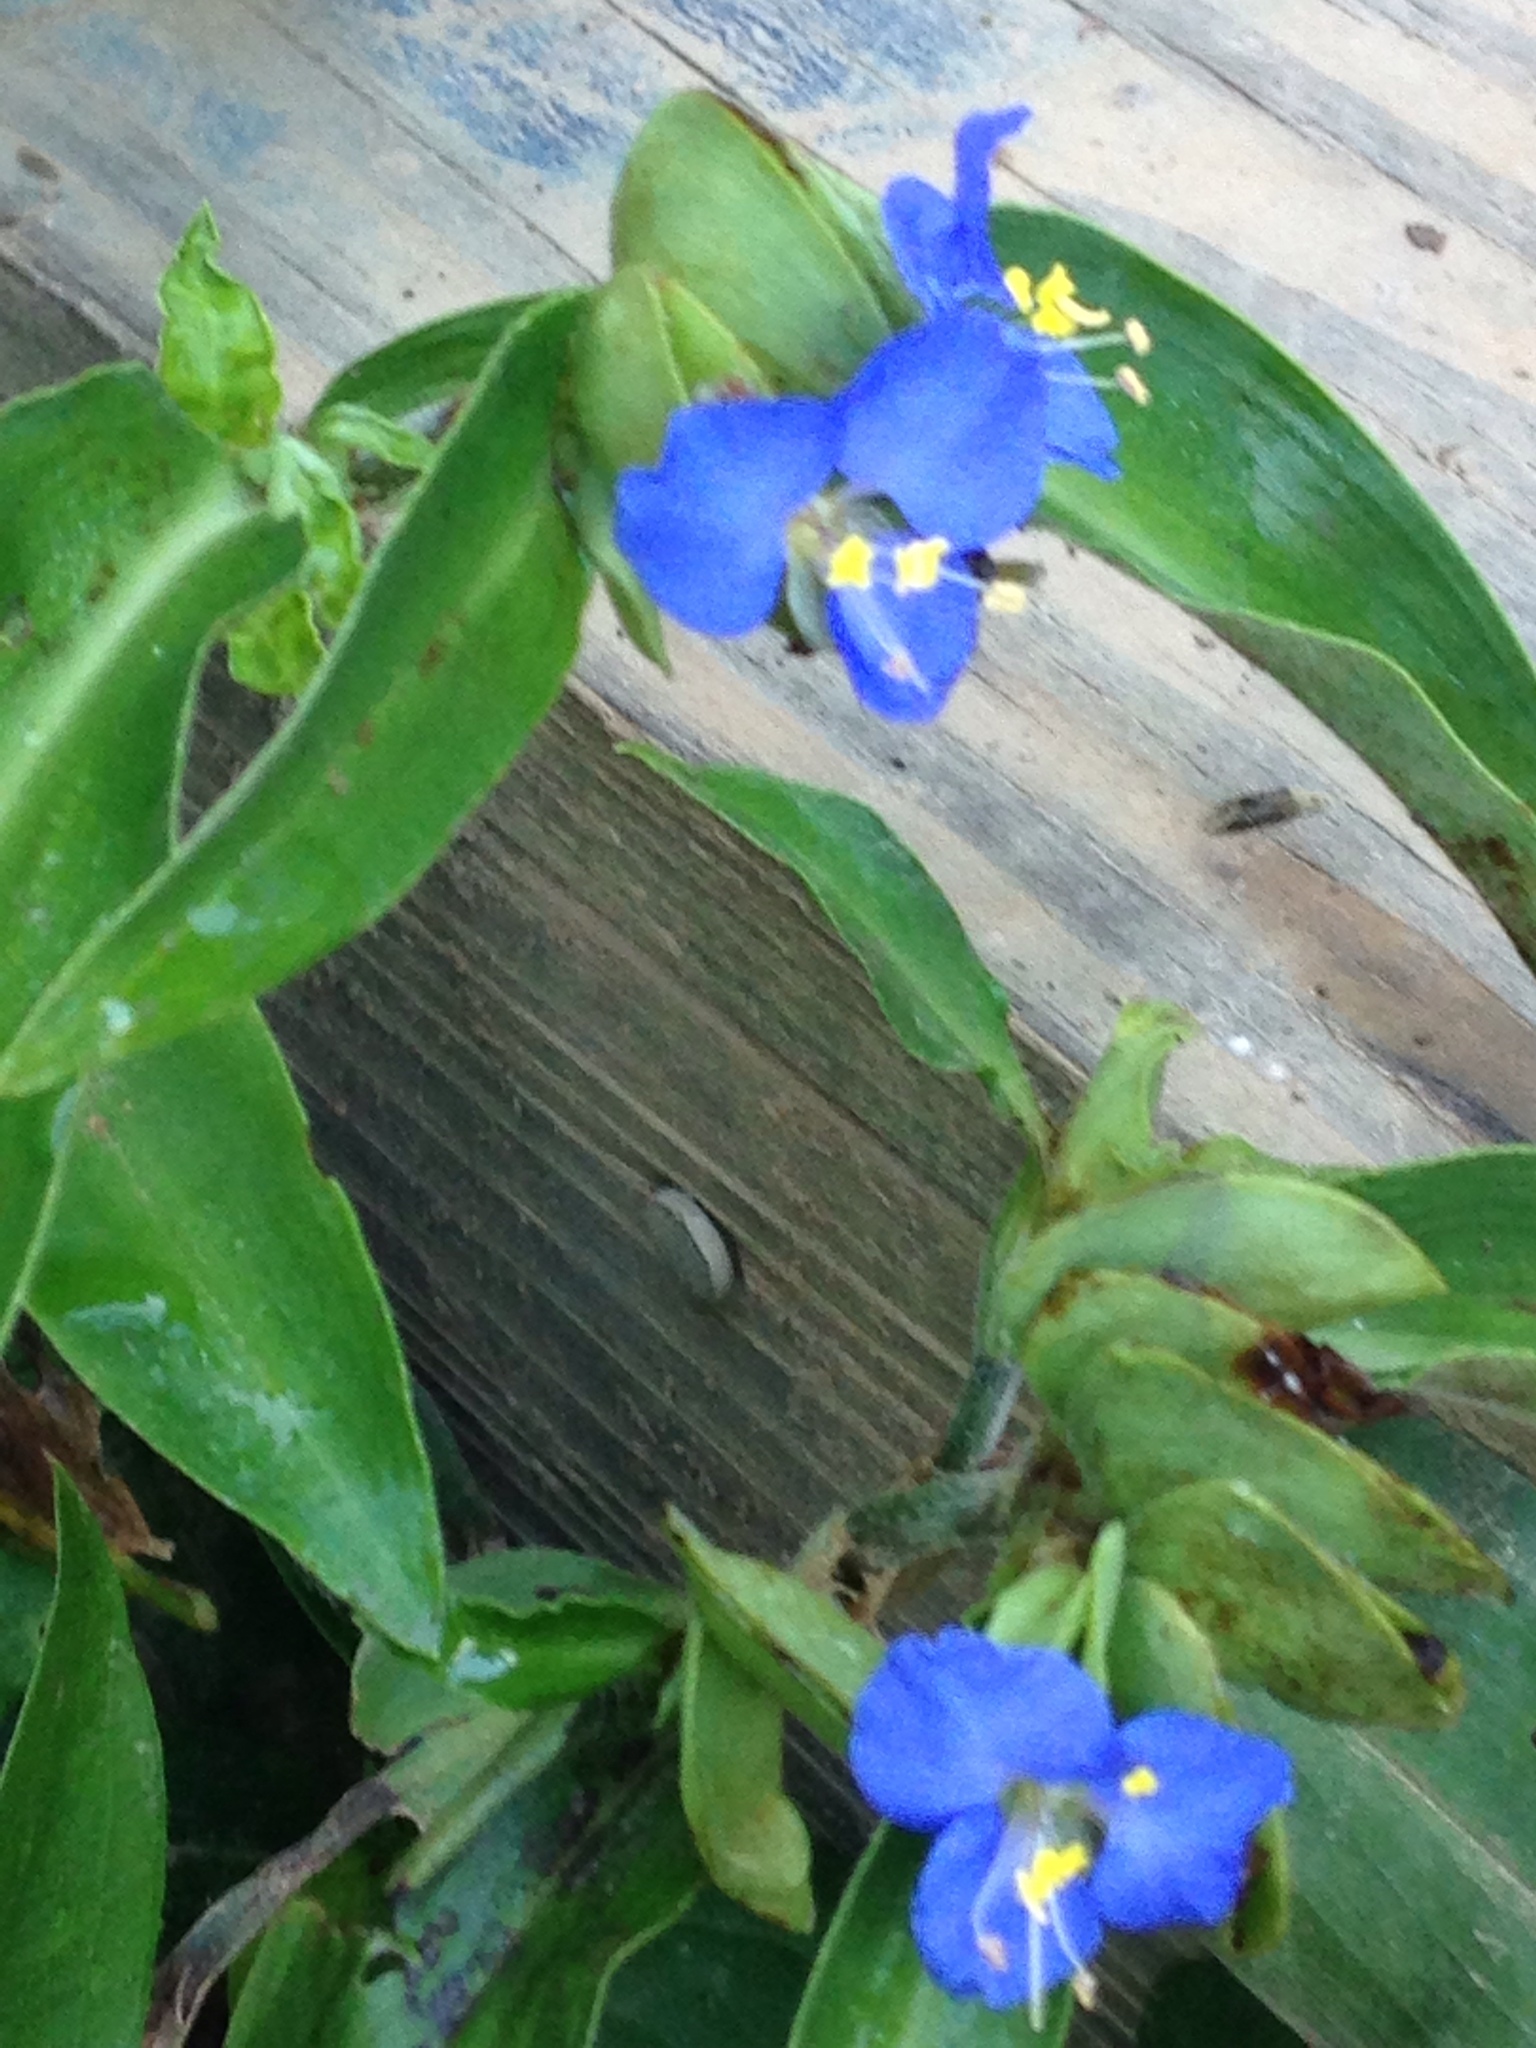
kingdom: Plantae
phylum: Tracheophyta
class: Liliopsida
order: Commelinales
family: Commelinaceae
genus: Commelina
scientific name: Commelina virginica
